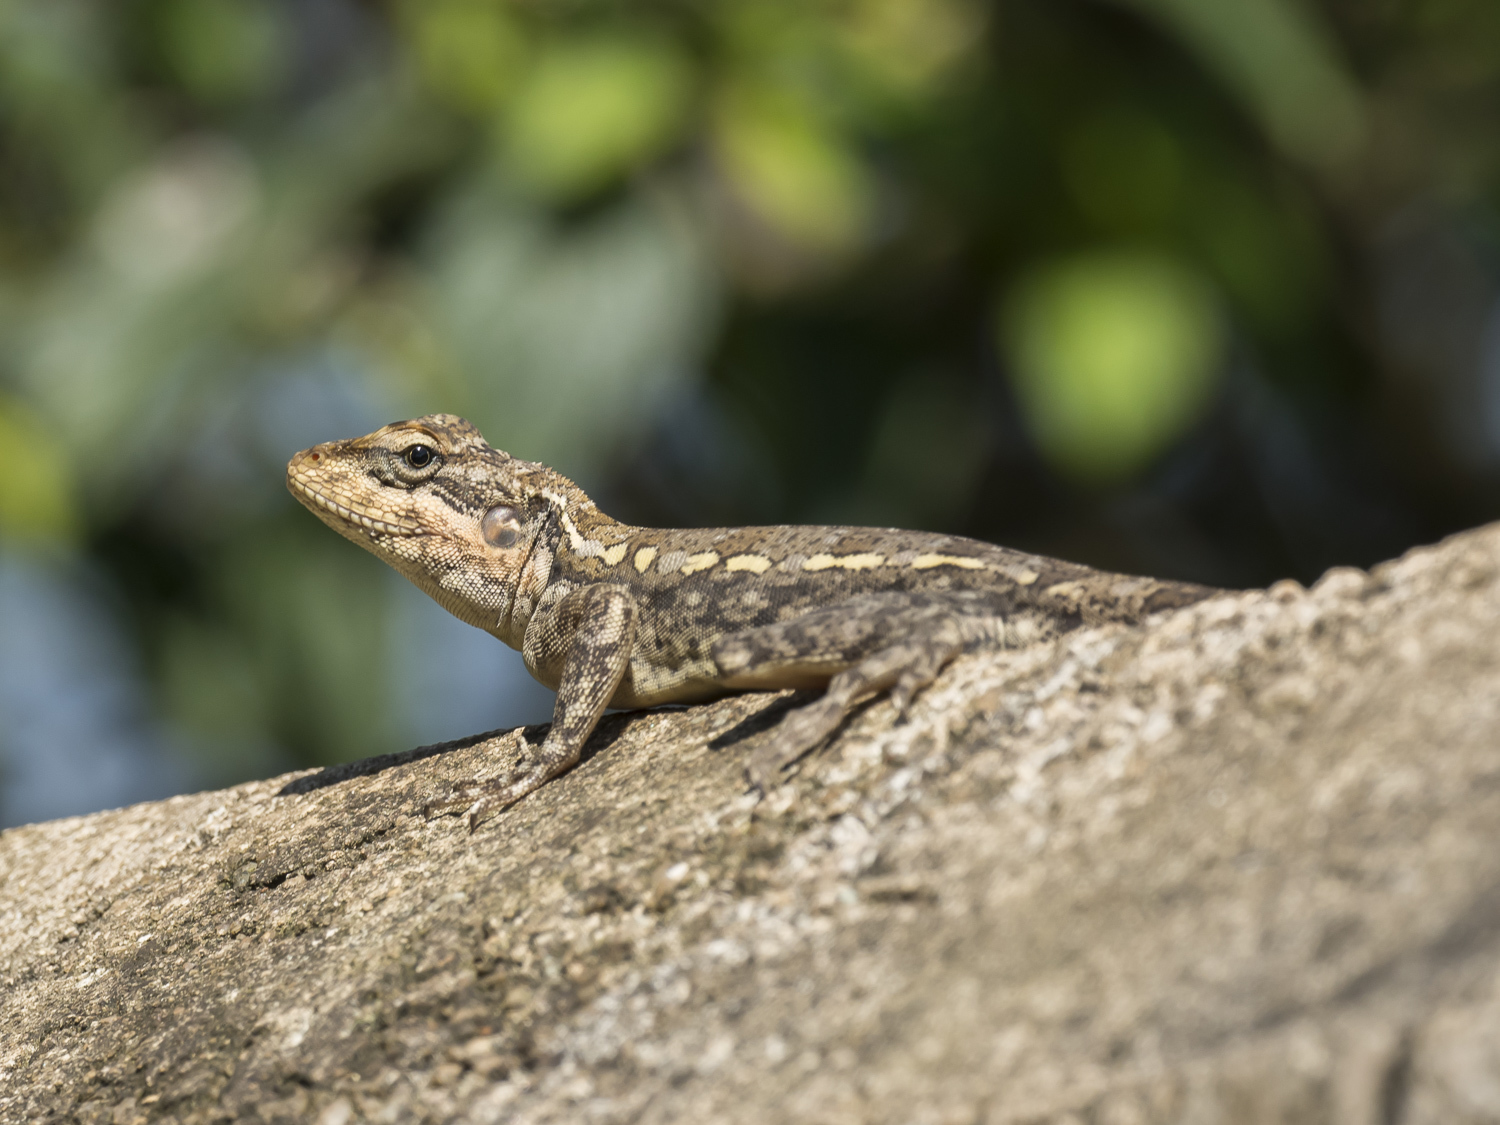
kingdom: Animalia
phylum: Chordata
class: Squamata
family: Agamidae
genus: Psammophilus
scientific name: Psammophilus dorsalis
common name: South indian rock agama
